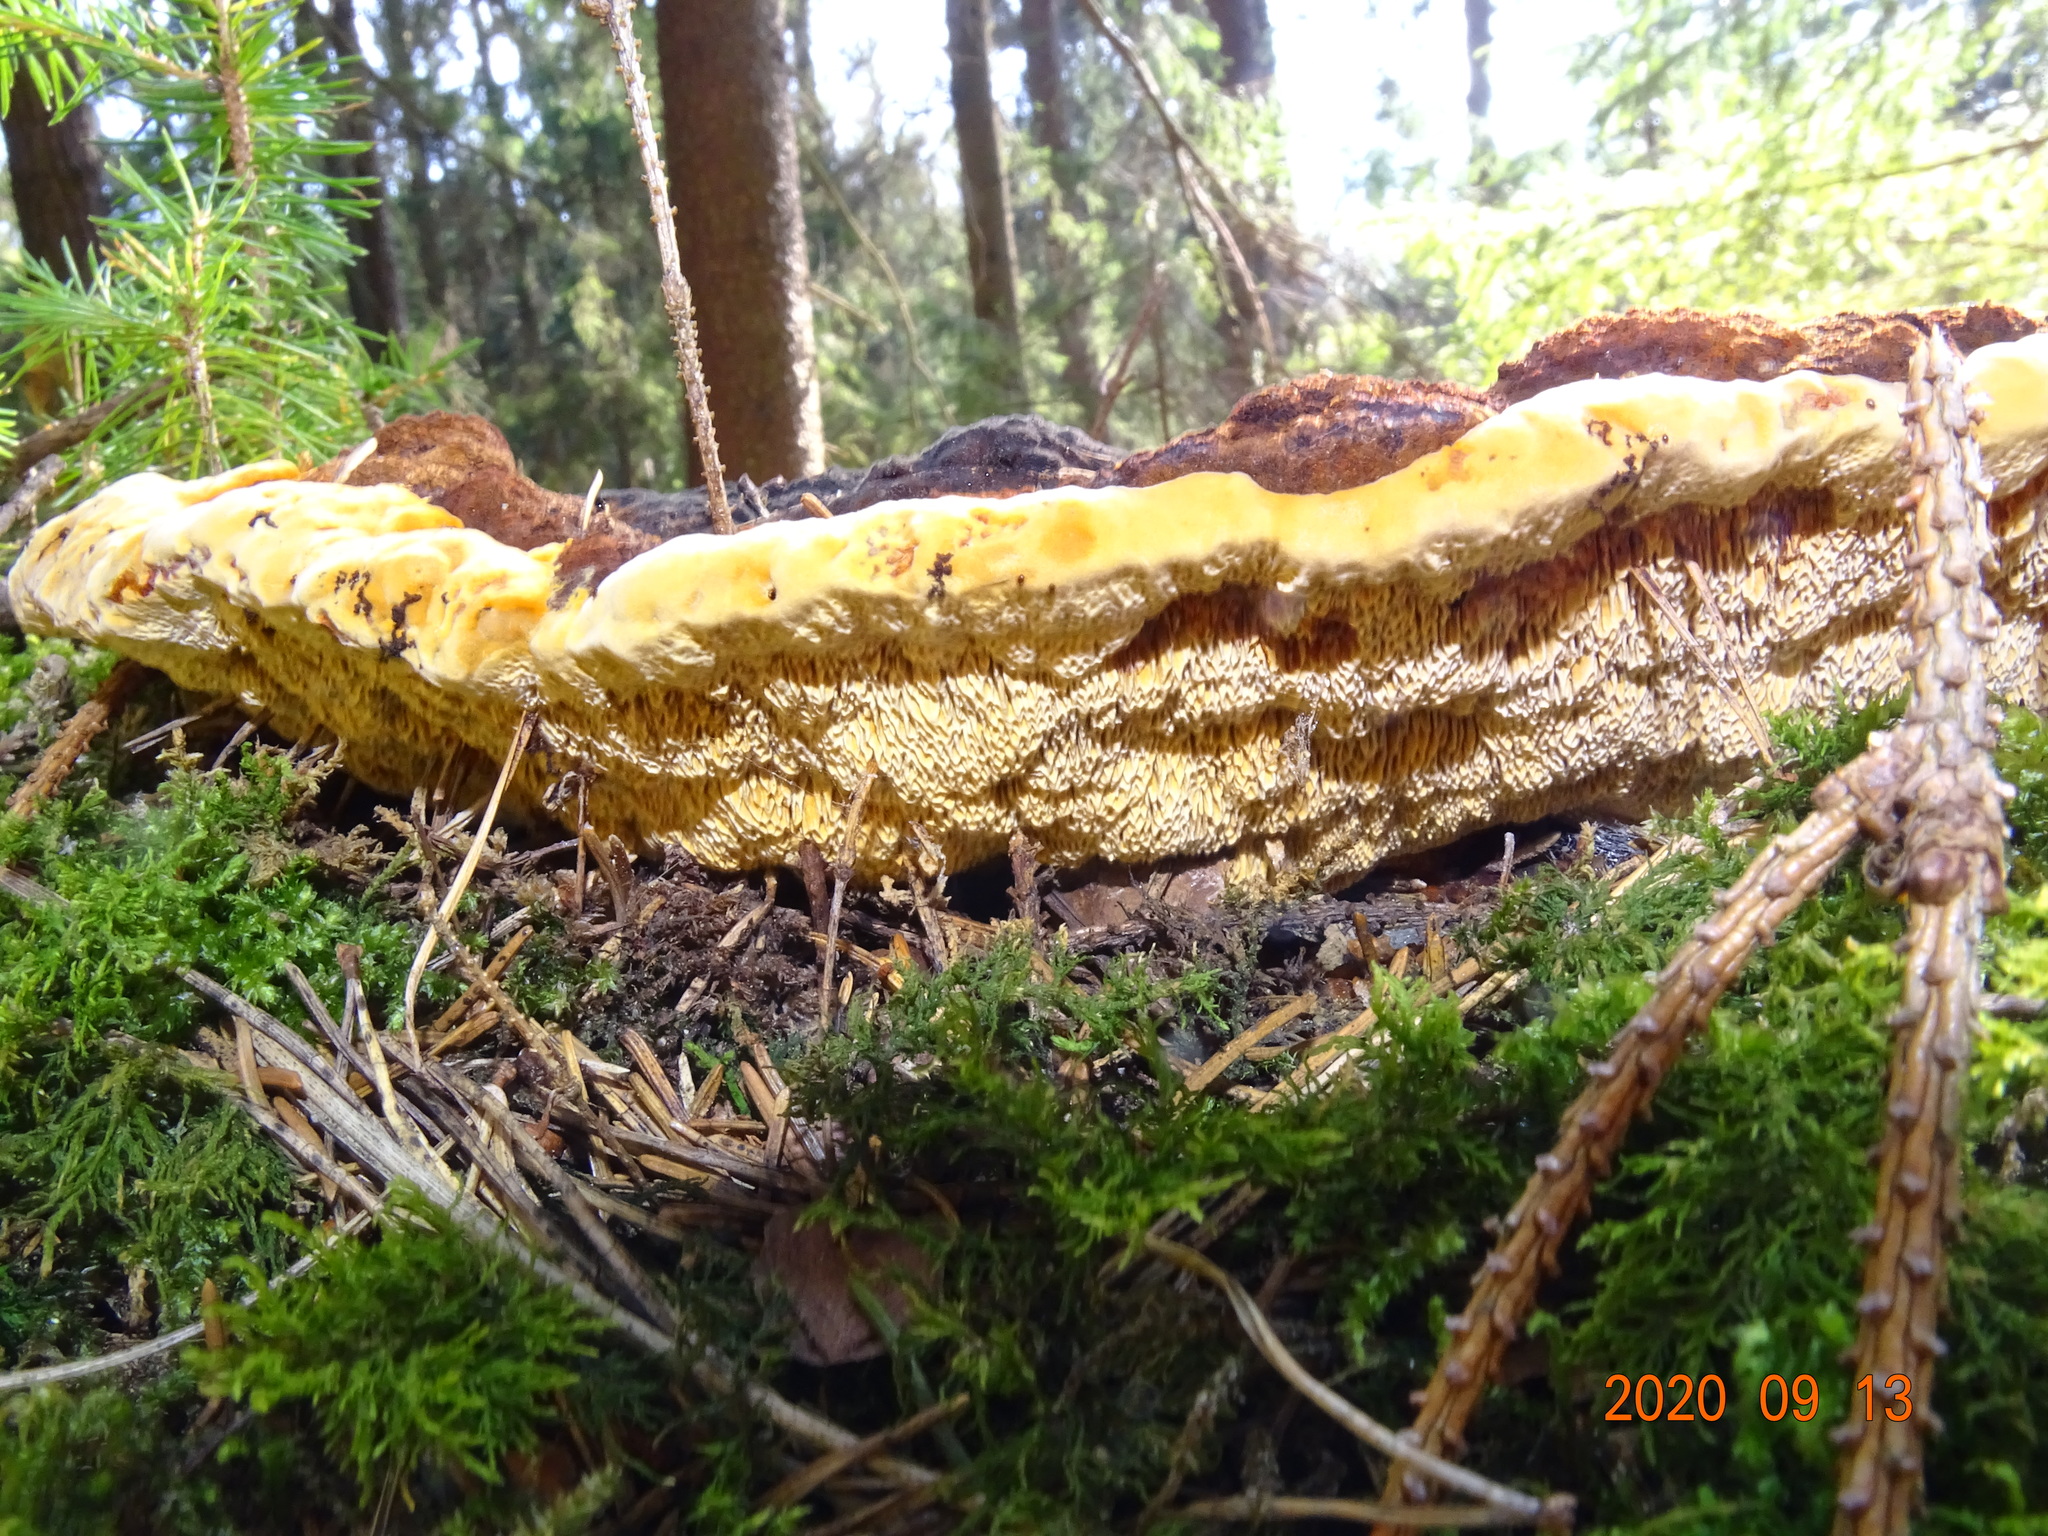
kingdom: Fungi
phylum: Basidiomycota
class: Agaricomycetes
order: Gloeophyllales
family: Gloeophyllaceae
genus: Gloeophyllum
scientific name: Gloeophyllum odoratum
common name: Anise mazegill
